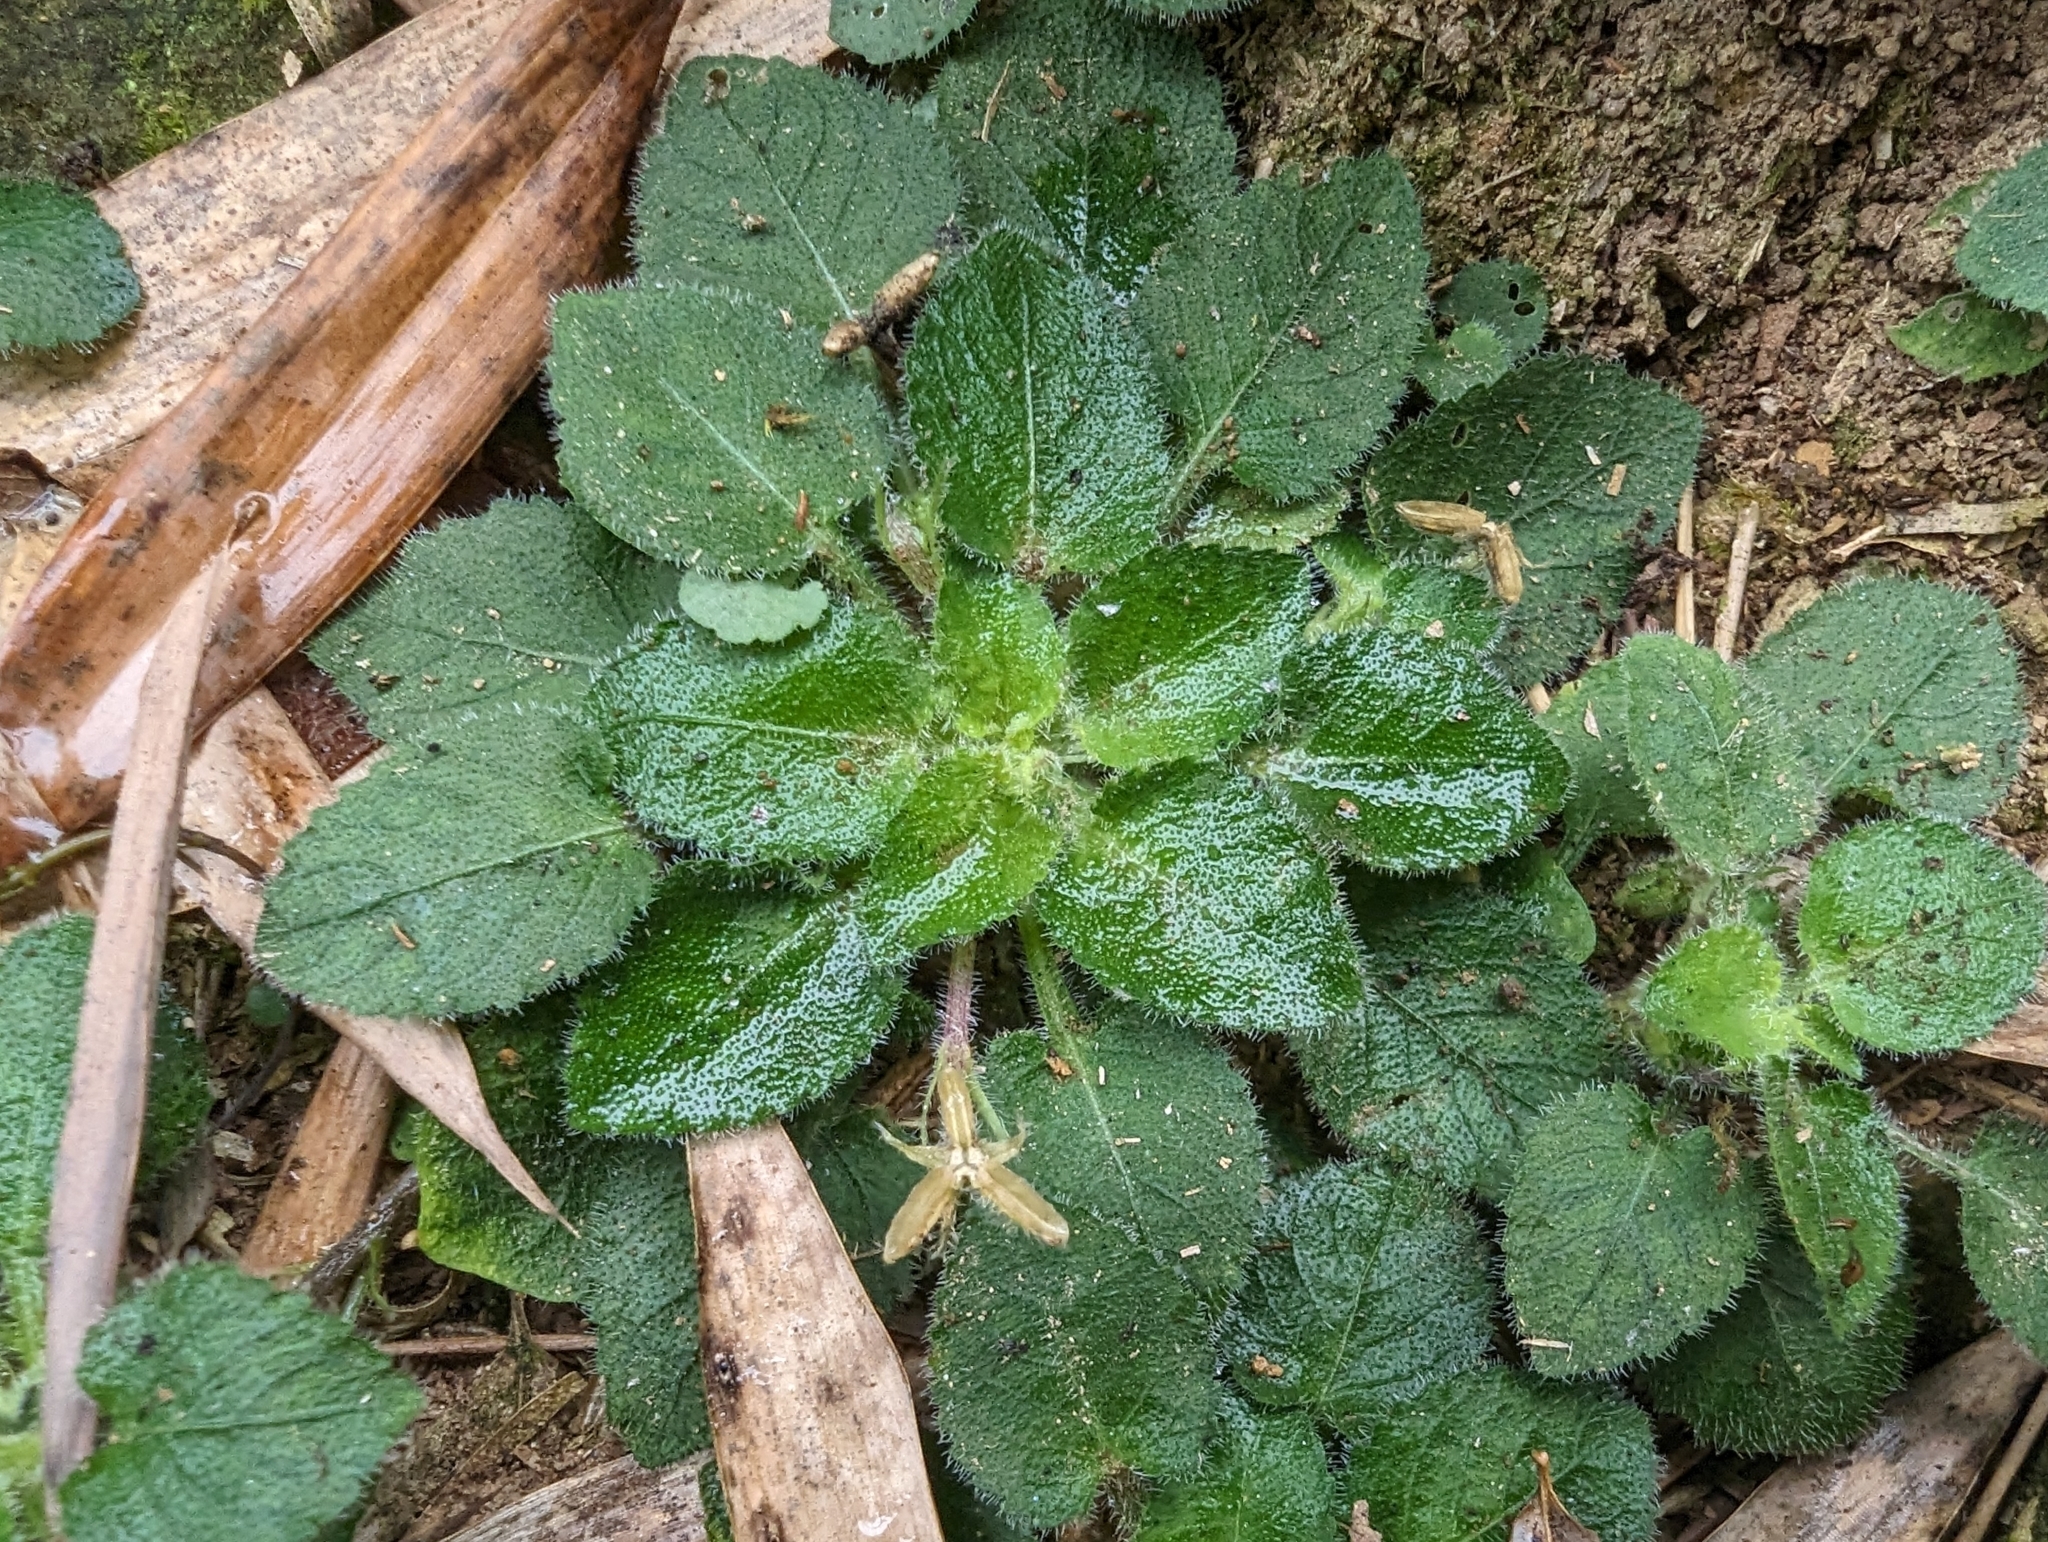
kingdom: Plantae
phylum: Tracheophyta
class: Magnoliopsida
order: Malpighiales
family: Violaceae
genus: Viola
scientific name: Viola diffusa
